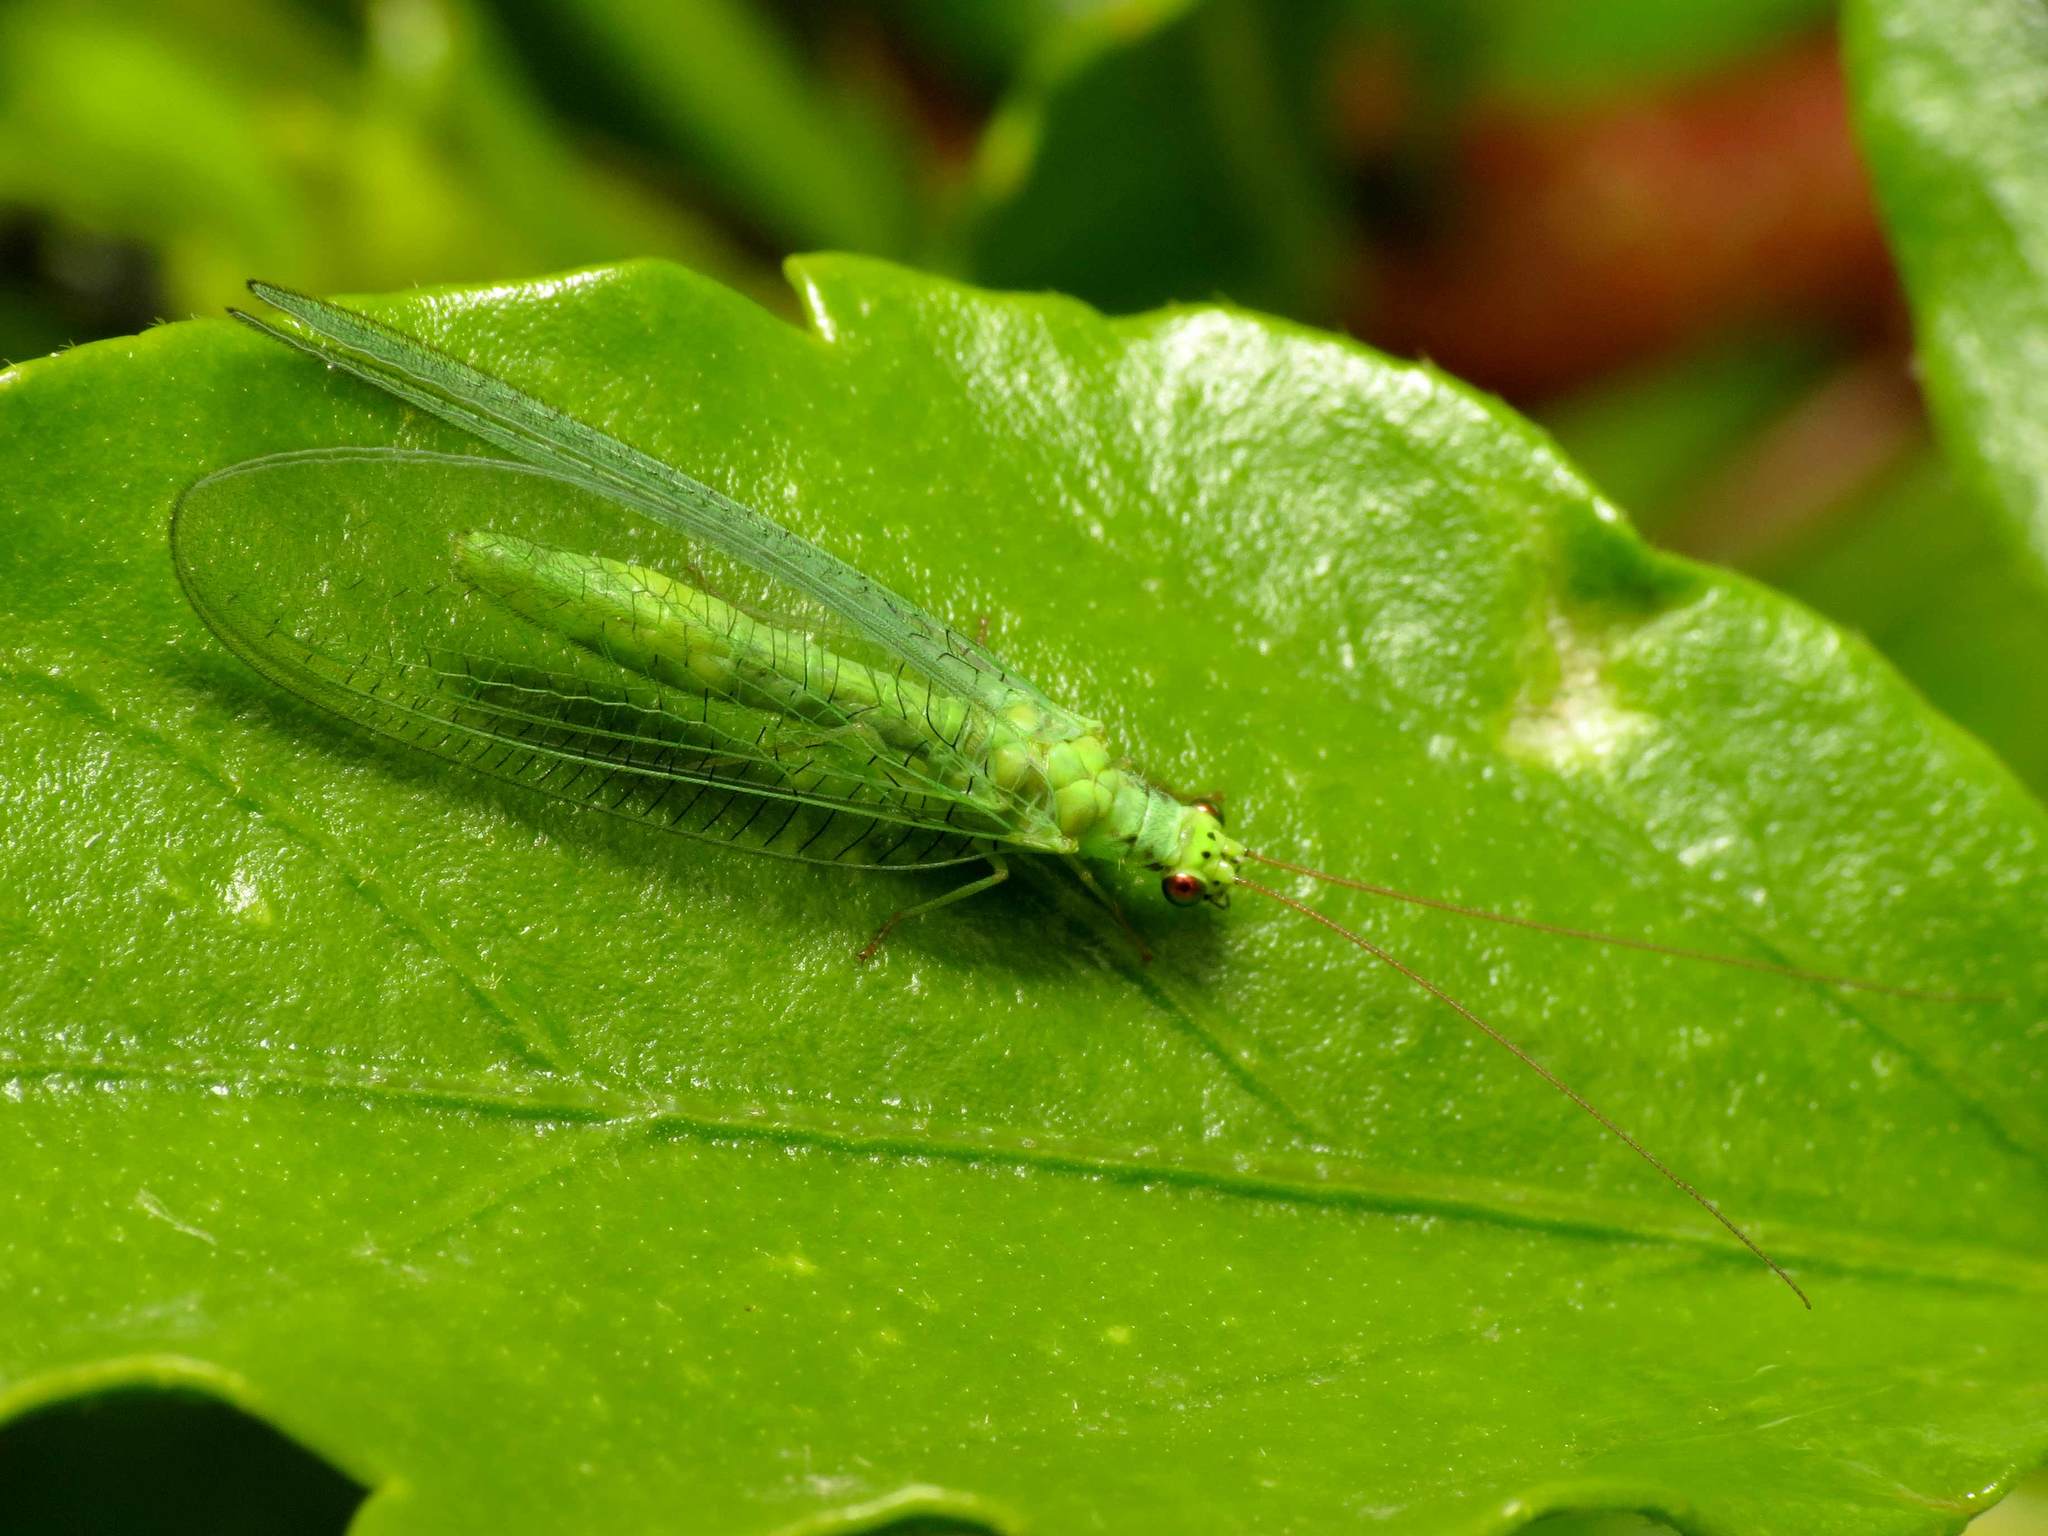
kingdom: Animalia
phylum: Arthropoda
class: Insecta
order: Neuroptera
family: Chrysopidae
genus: Chrysopa
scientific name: Chrysopa formosa
